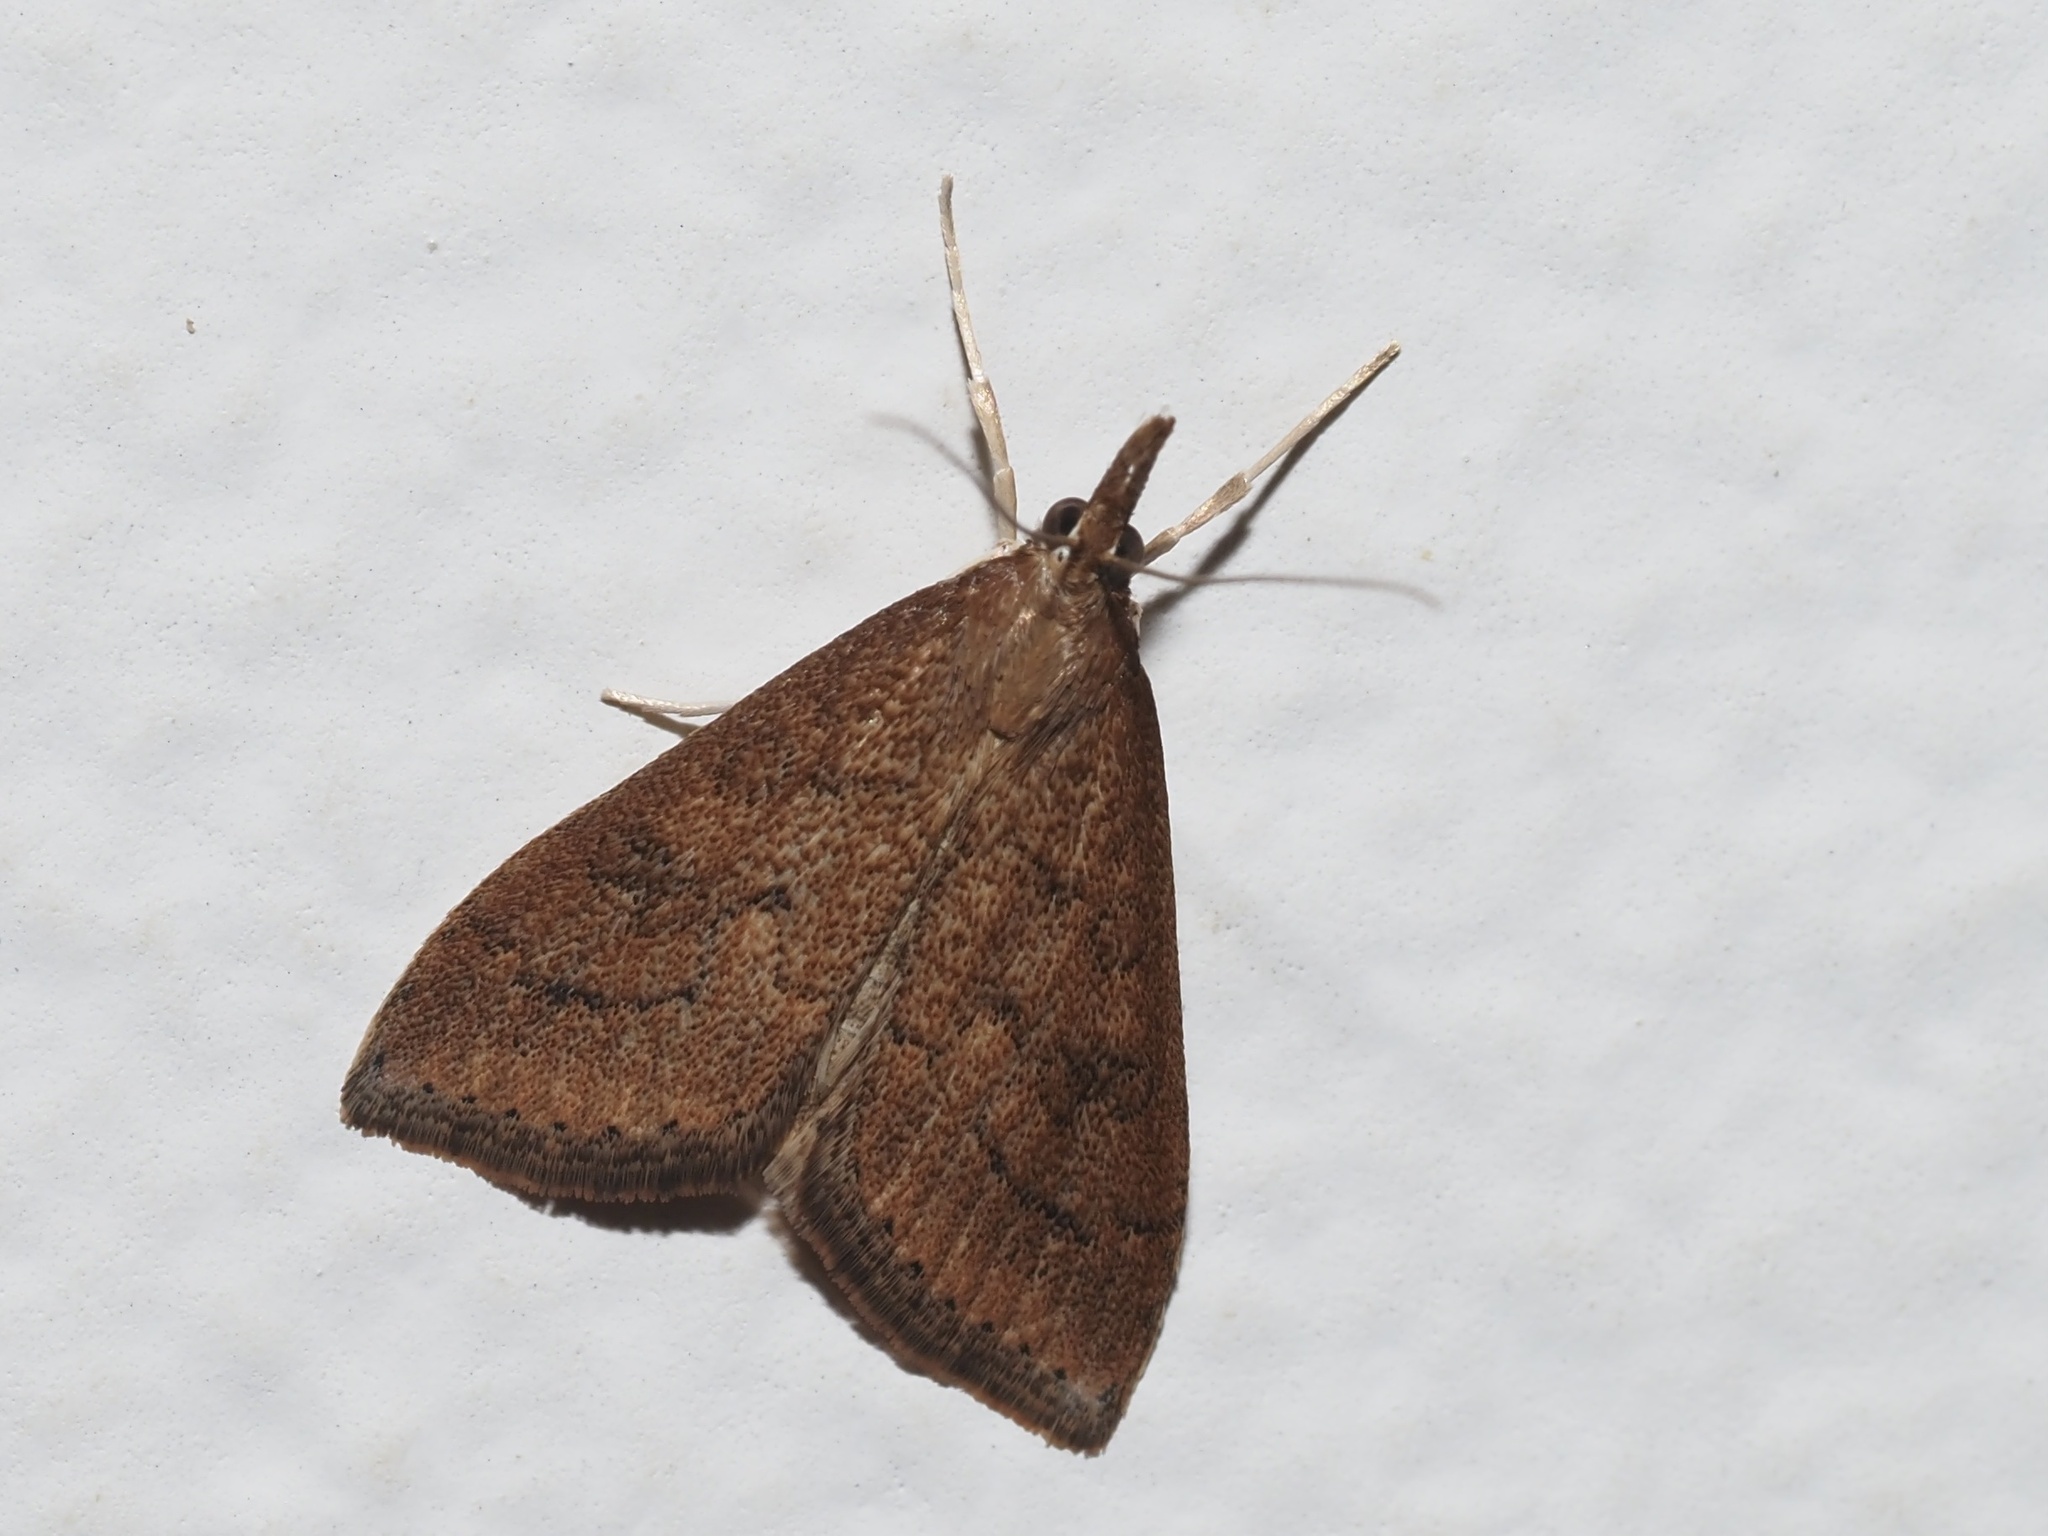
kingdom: Animalia
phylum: Arthropoda
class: Insecta
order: Lepidoptera
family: Crambidae
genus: Udea
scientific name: Udea rubigalis
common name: Celery leaftier moth
